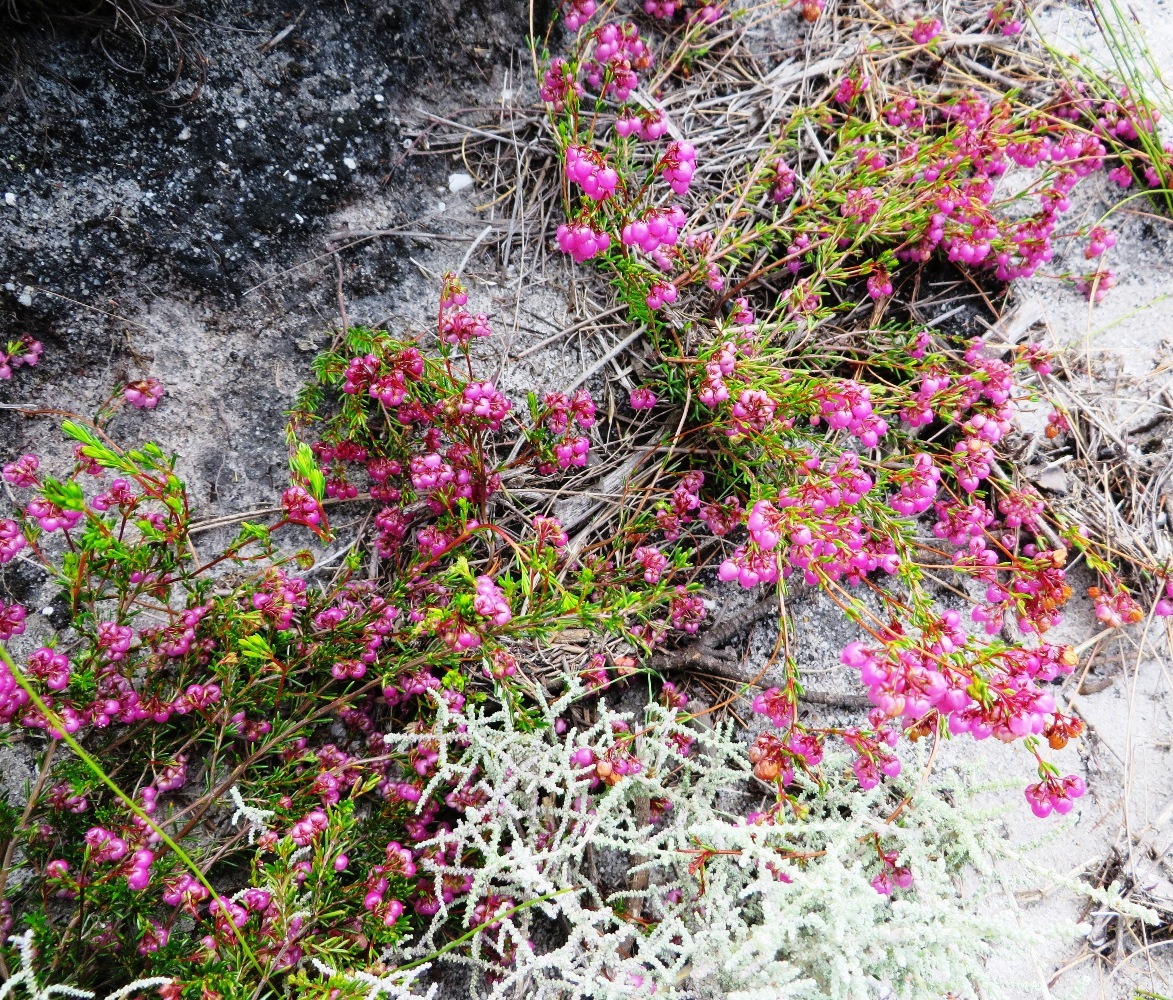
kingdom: Plantae
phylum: Tracheophyta
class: Magnoliopsida
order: Ericales
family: Ericaceae
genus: Erica
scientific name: Erica multumbellifera
